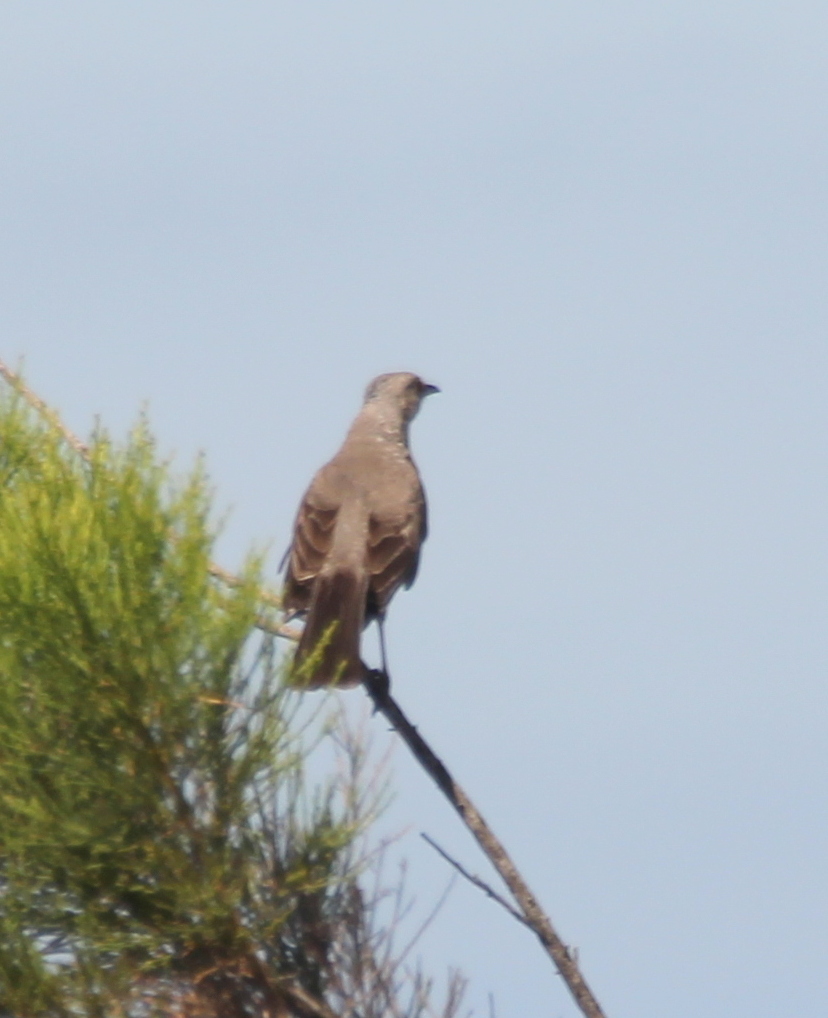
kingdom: Animalia
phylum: Chordata
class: Aves
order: Passeriformes
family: Mimidae
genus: Mimus
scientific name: Mimus polyglottos
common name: Northern mockingbird
